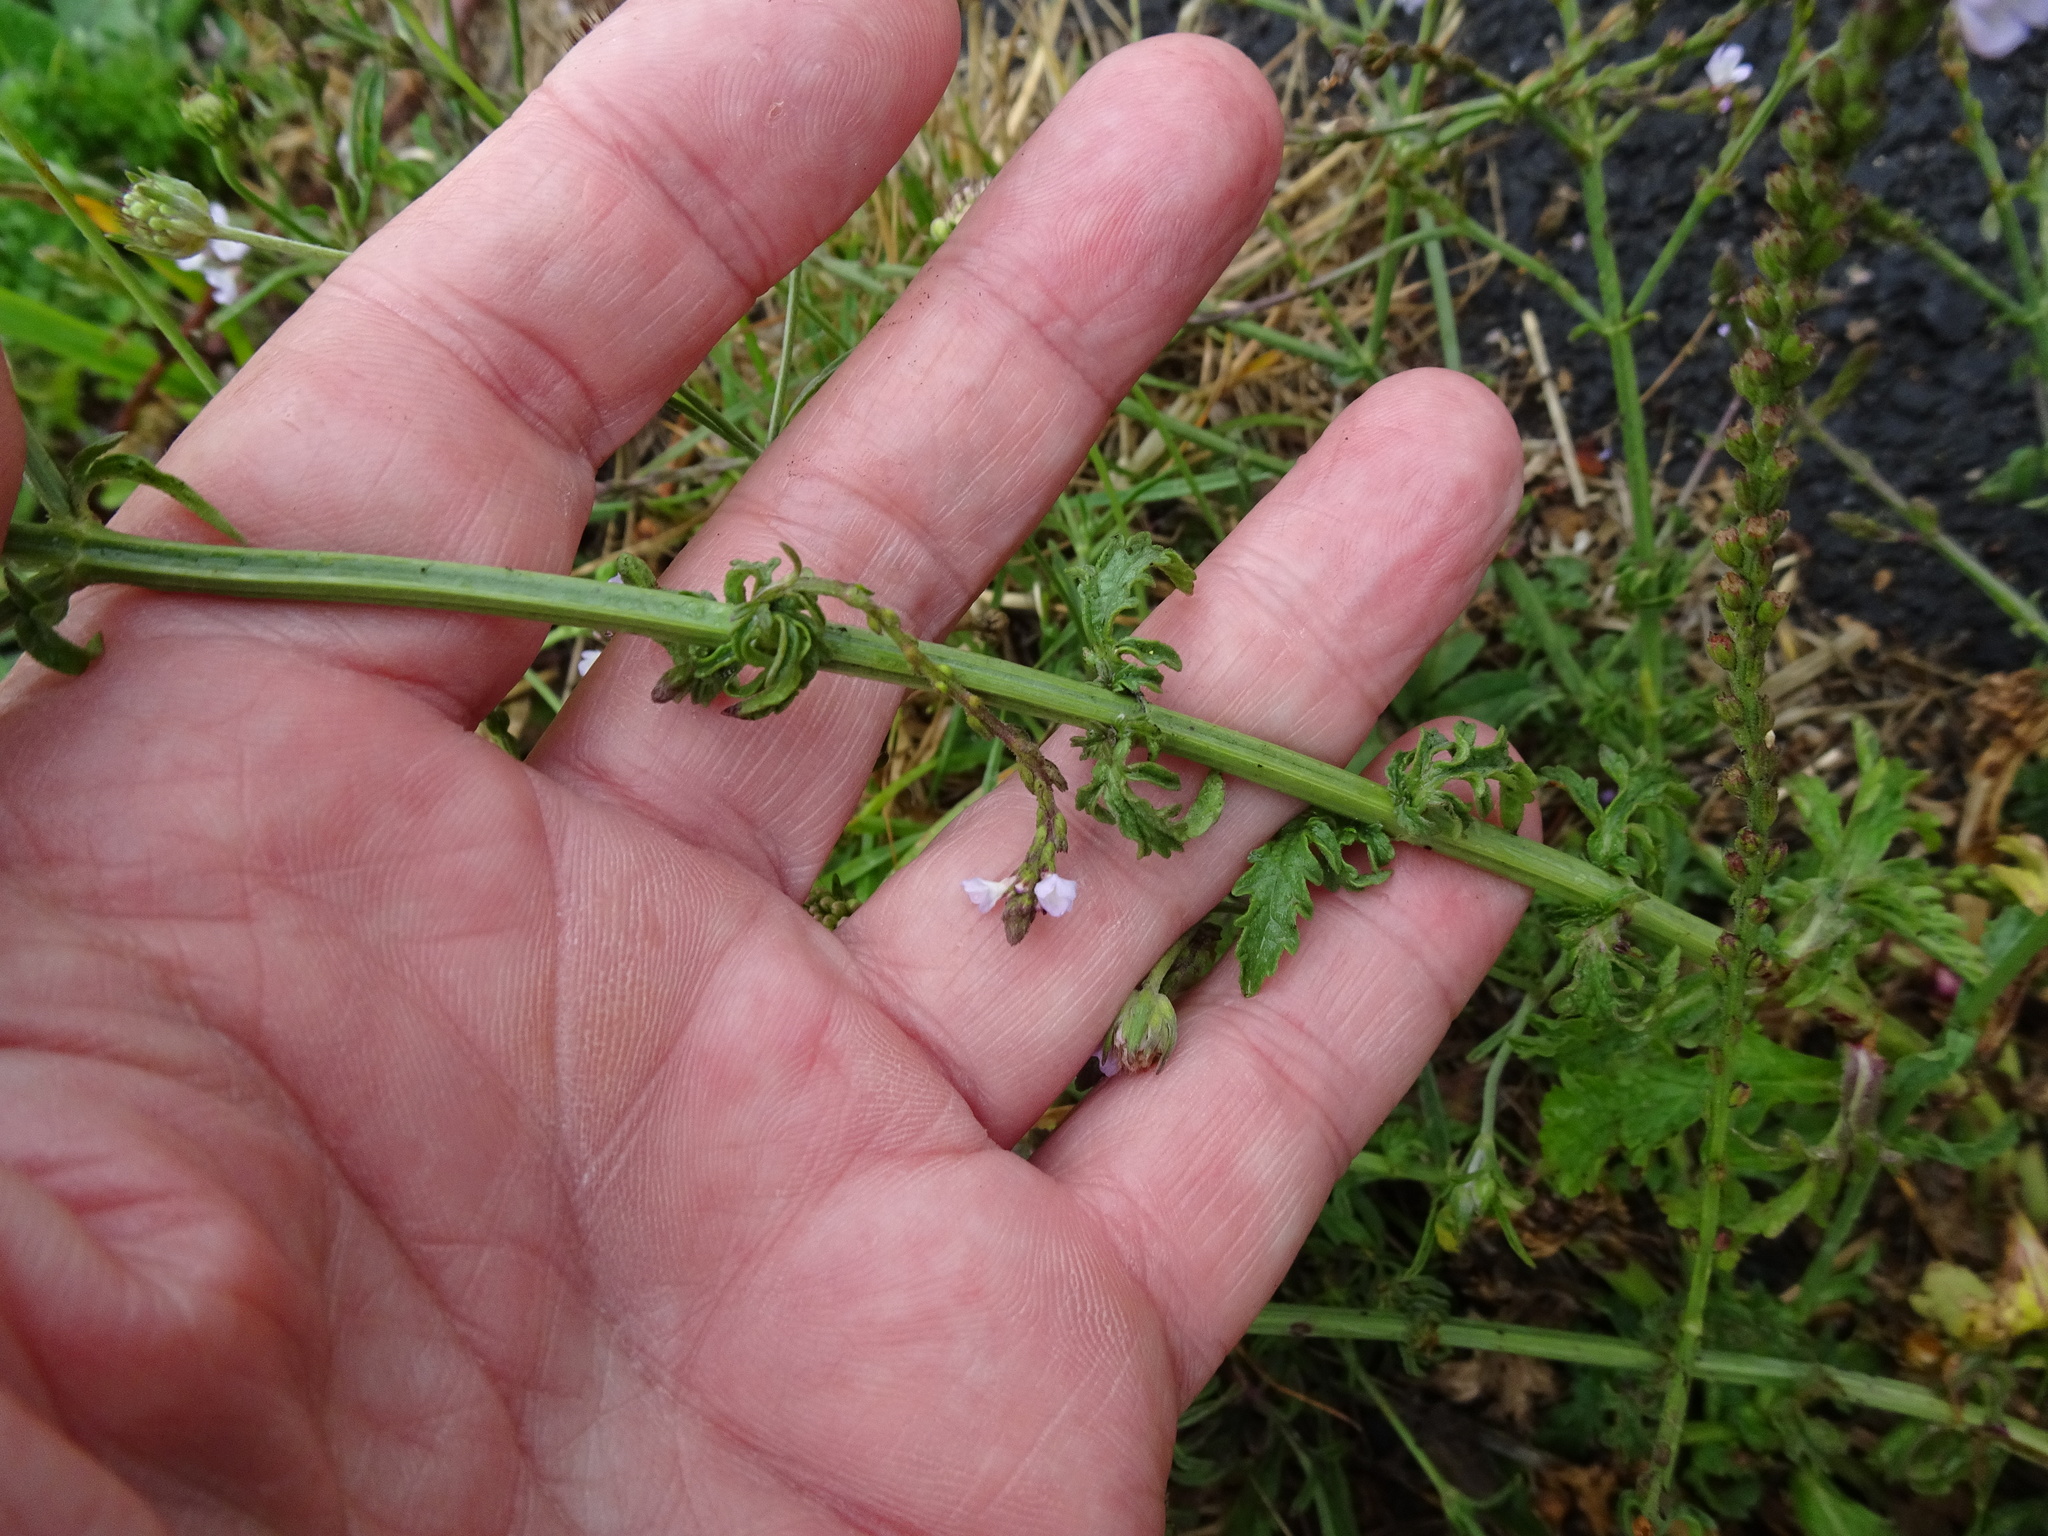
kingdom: Plantae
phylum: Tracheophyta
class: Magnoliopsida
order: Lamiales
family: Verbenaceae
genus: Verbena
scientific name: Verbena officinalis
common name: Vervain
